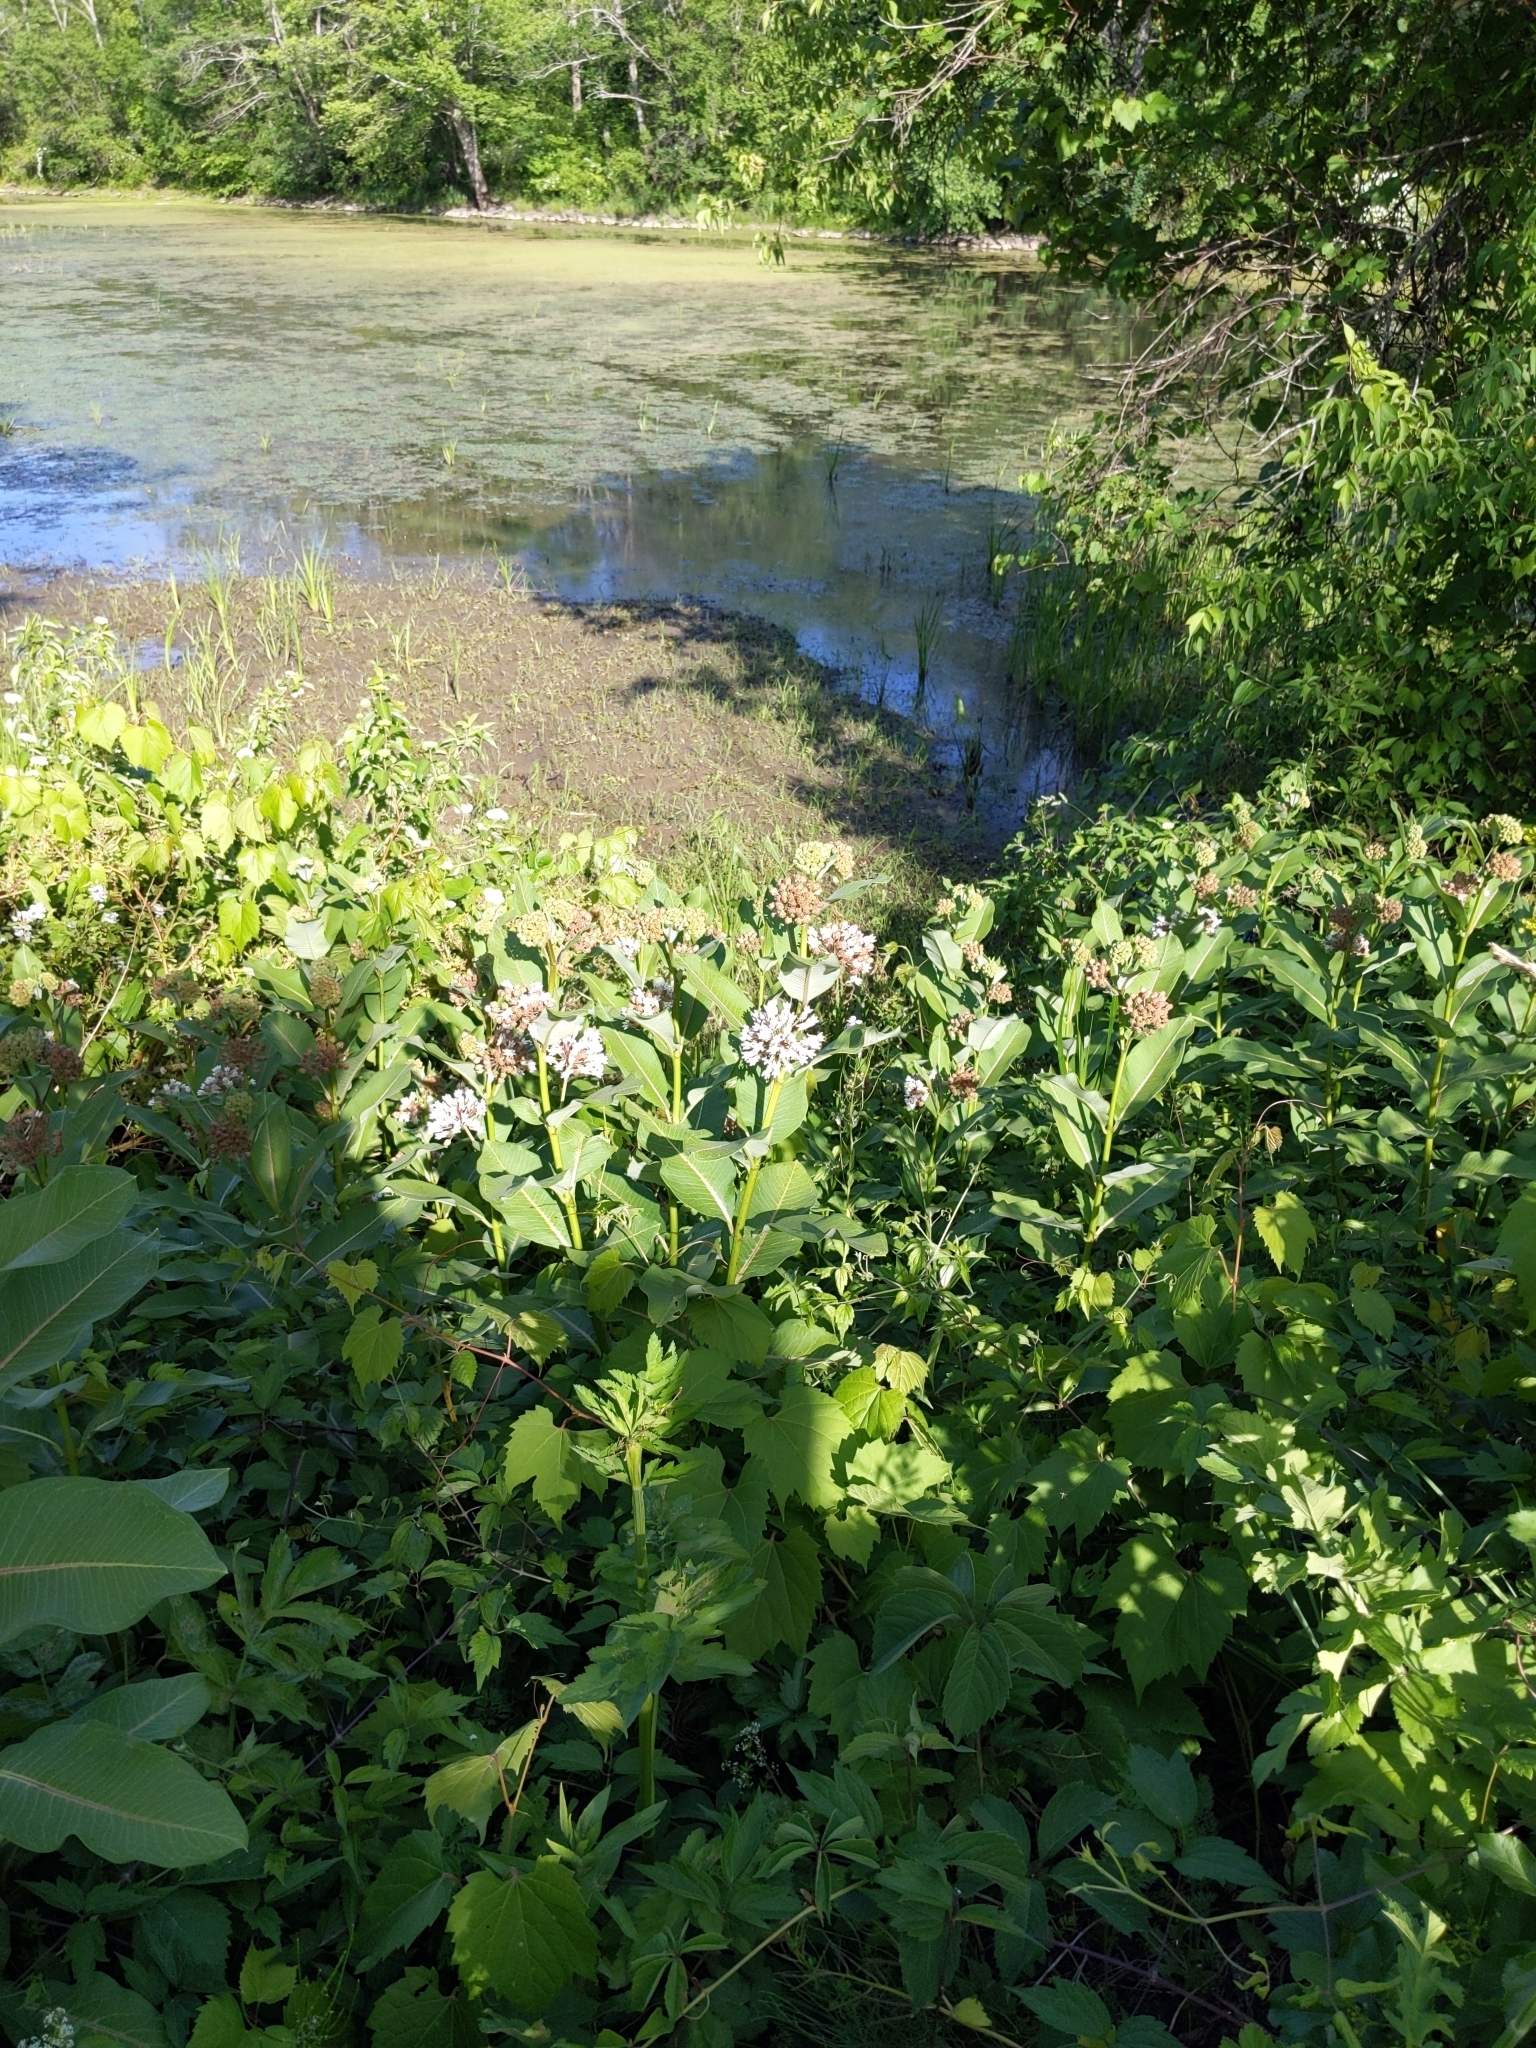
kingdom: Plantae
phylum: Tracheophyta
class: Magnoliopsida
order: Gentianales
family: Apocynaceae
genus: Asclepias
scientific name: Asclepias syriaca
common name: Common milkweed
